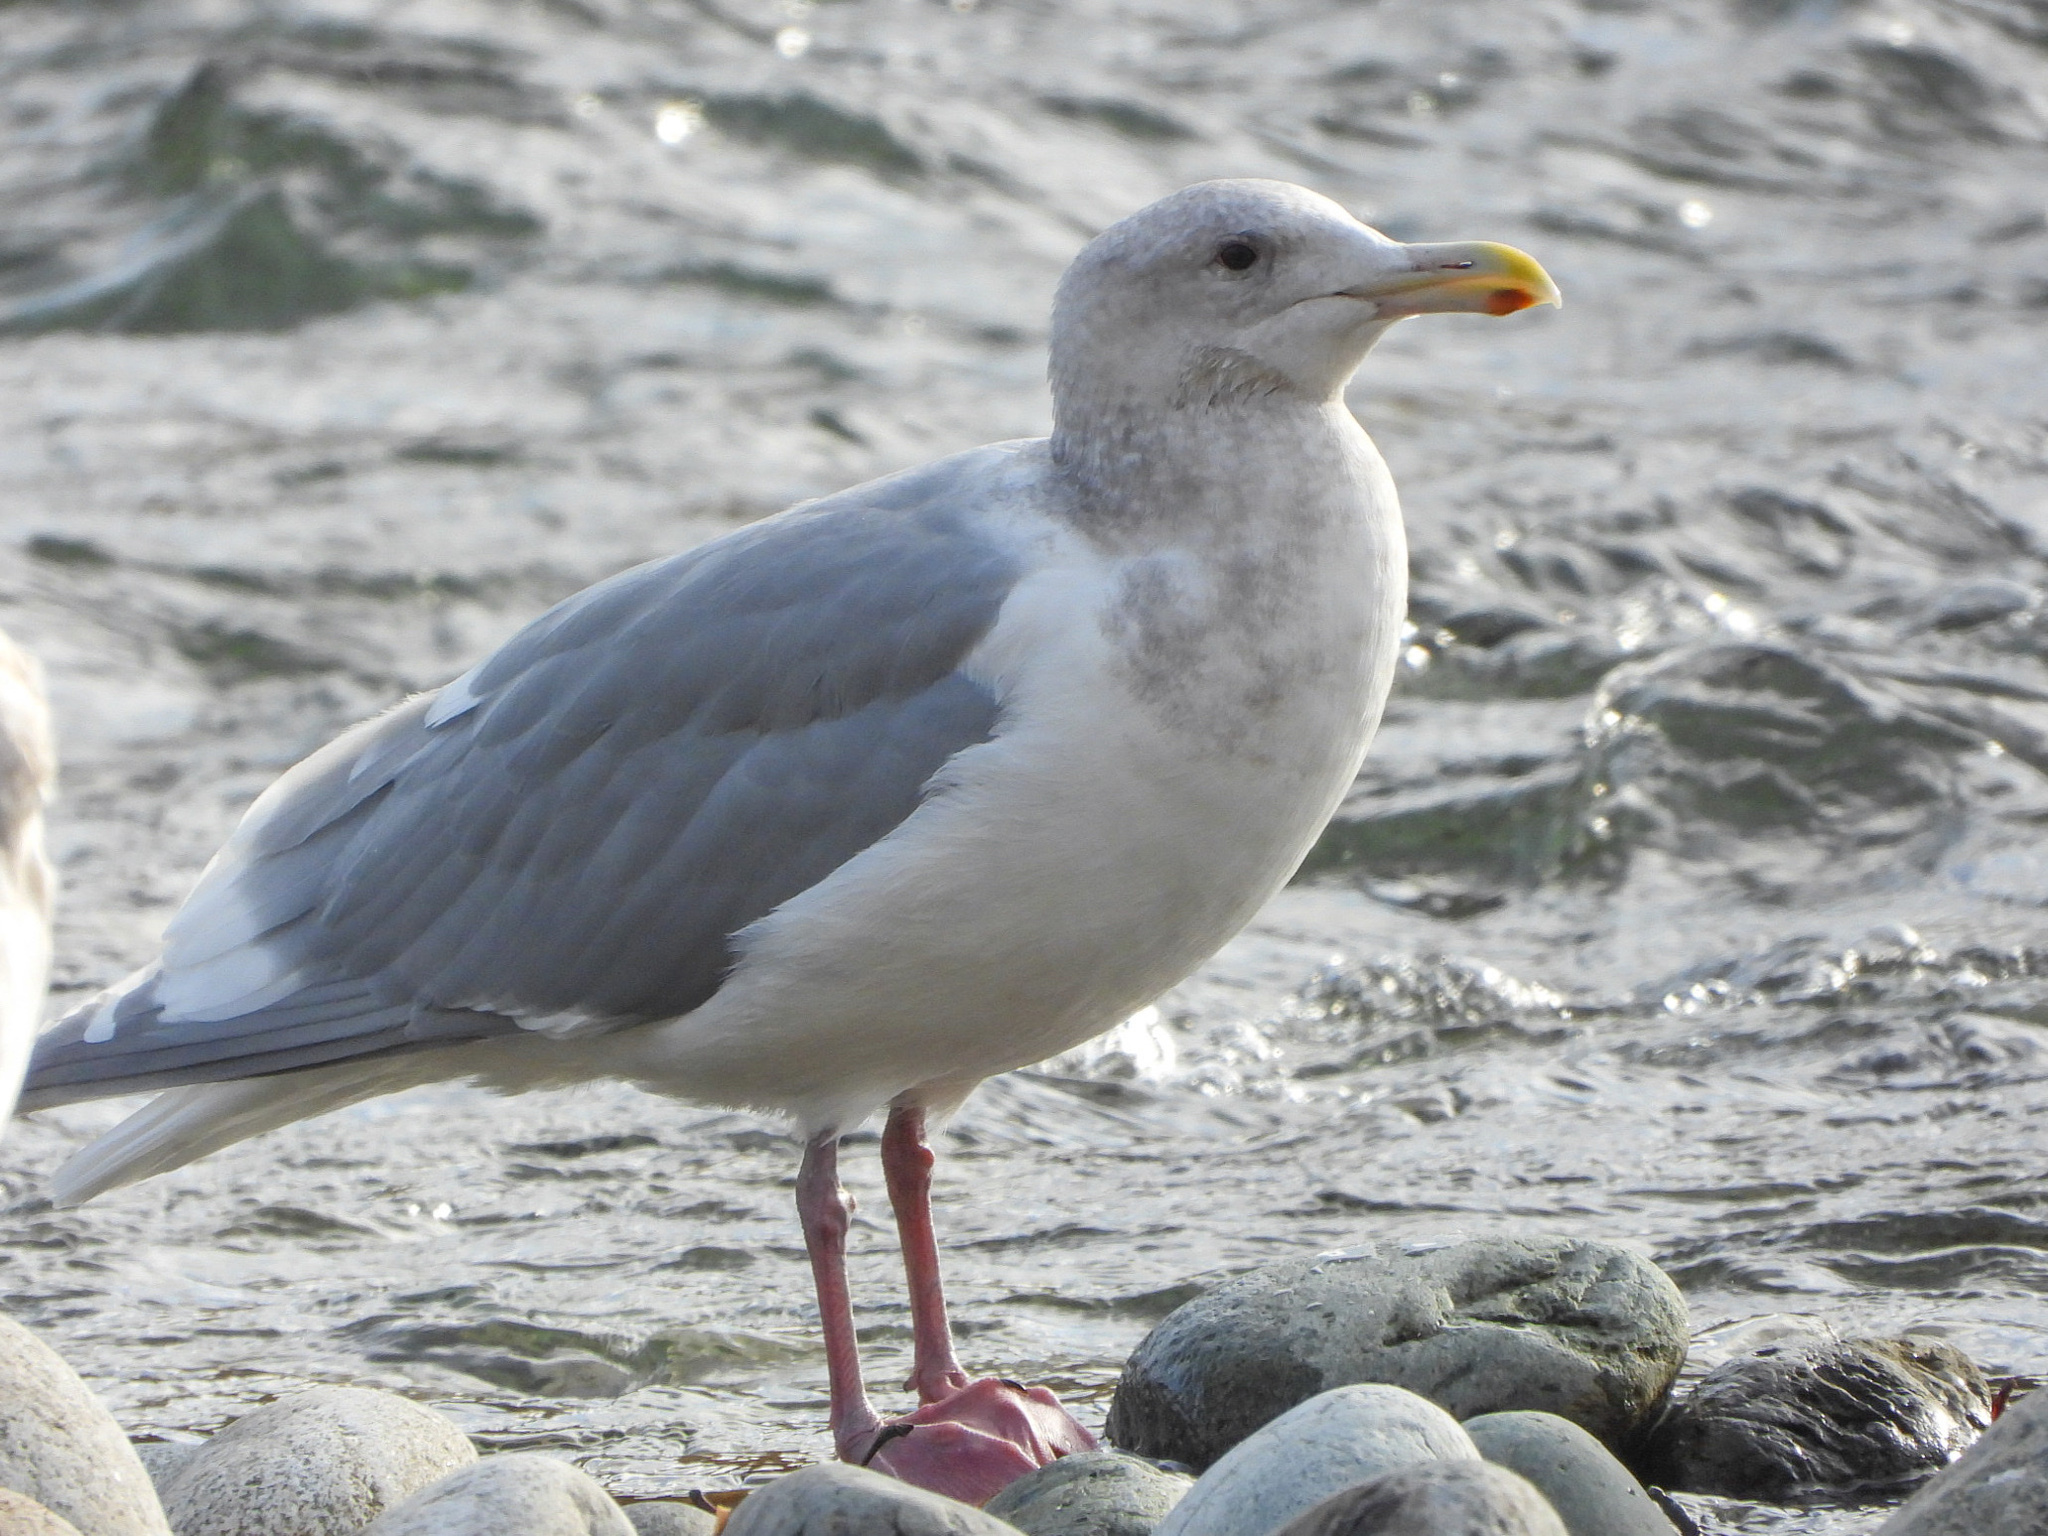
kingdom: Animalia
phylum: Chordata
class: Aves
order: Charadriiformes
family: Laridae
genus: Larus
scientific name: Larus glaucescens
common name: Glaucous-winged gull
